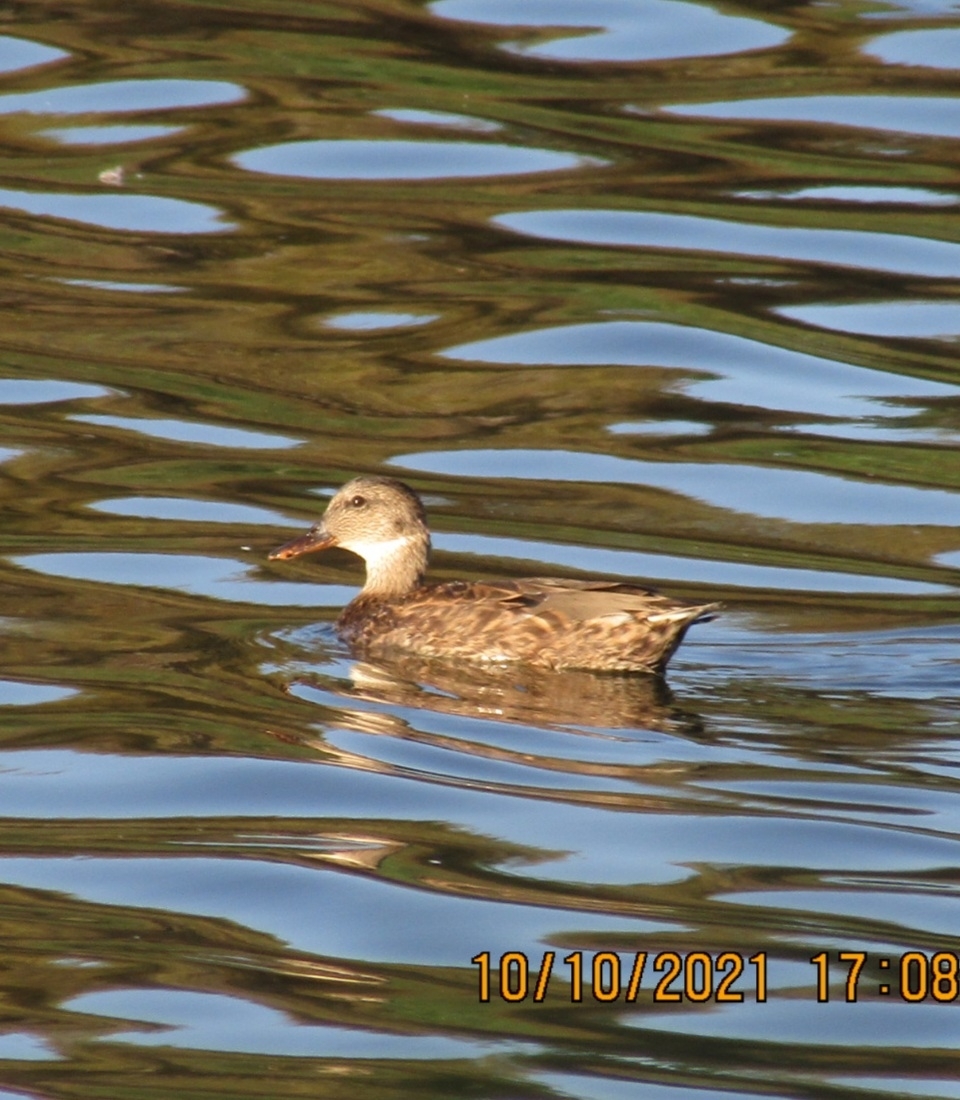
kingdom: Animalia
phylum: Chordata
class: Aves
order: Anseriformes
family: Anatidae
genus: Mareca
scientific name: Mareca strepera
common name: Gadwall
